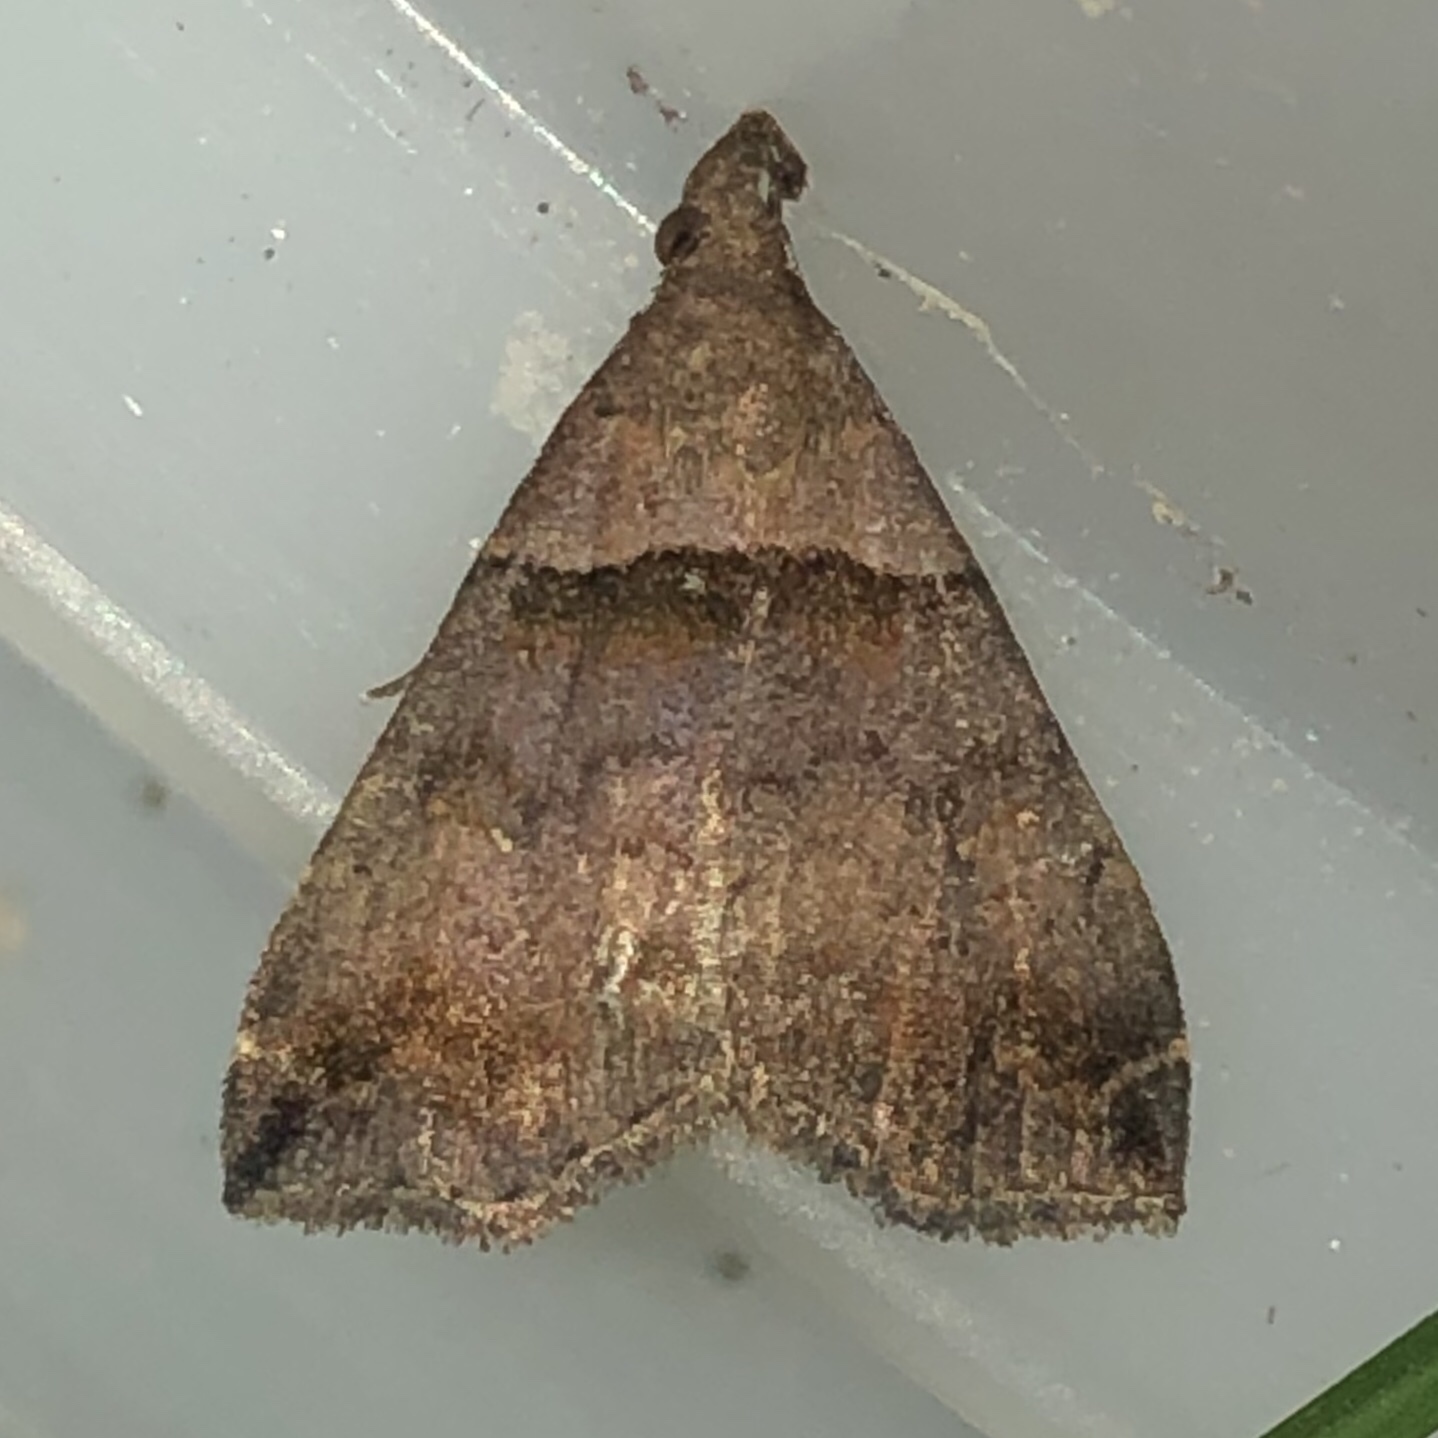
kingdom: Animalia
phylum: Arthropoda
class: Insecta
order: Lepidoptera
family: Erebidae
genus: Lascoria
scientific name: Lascoria ambigualis
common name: Ambiguous moth
